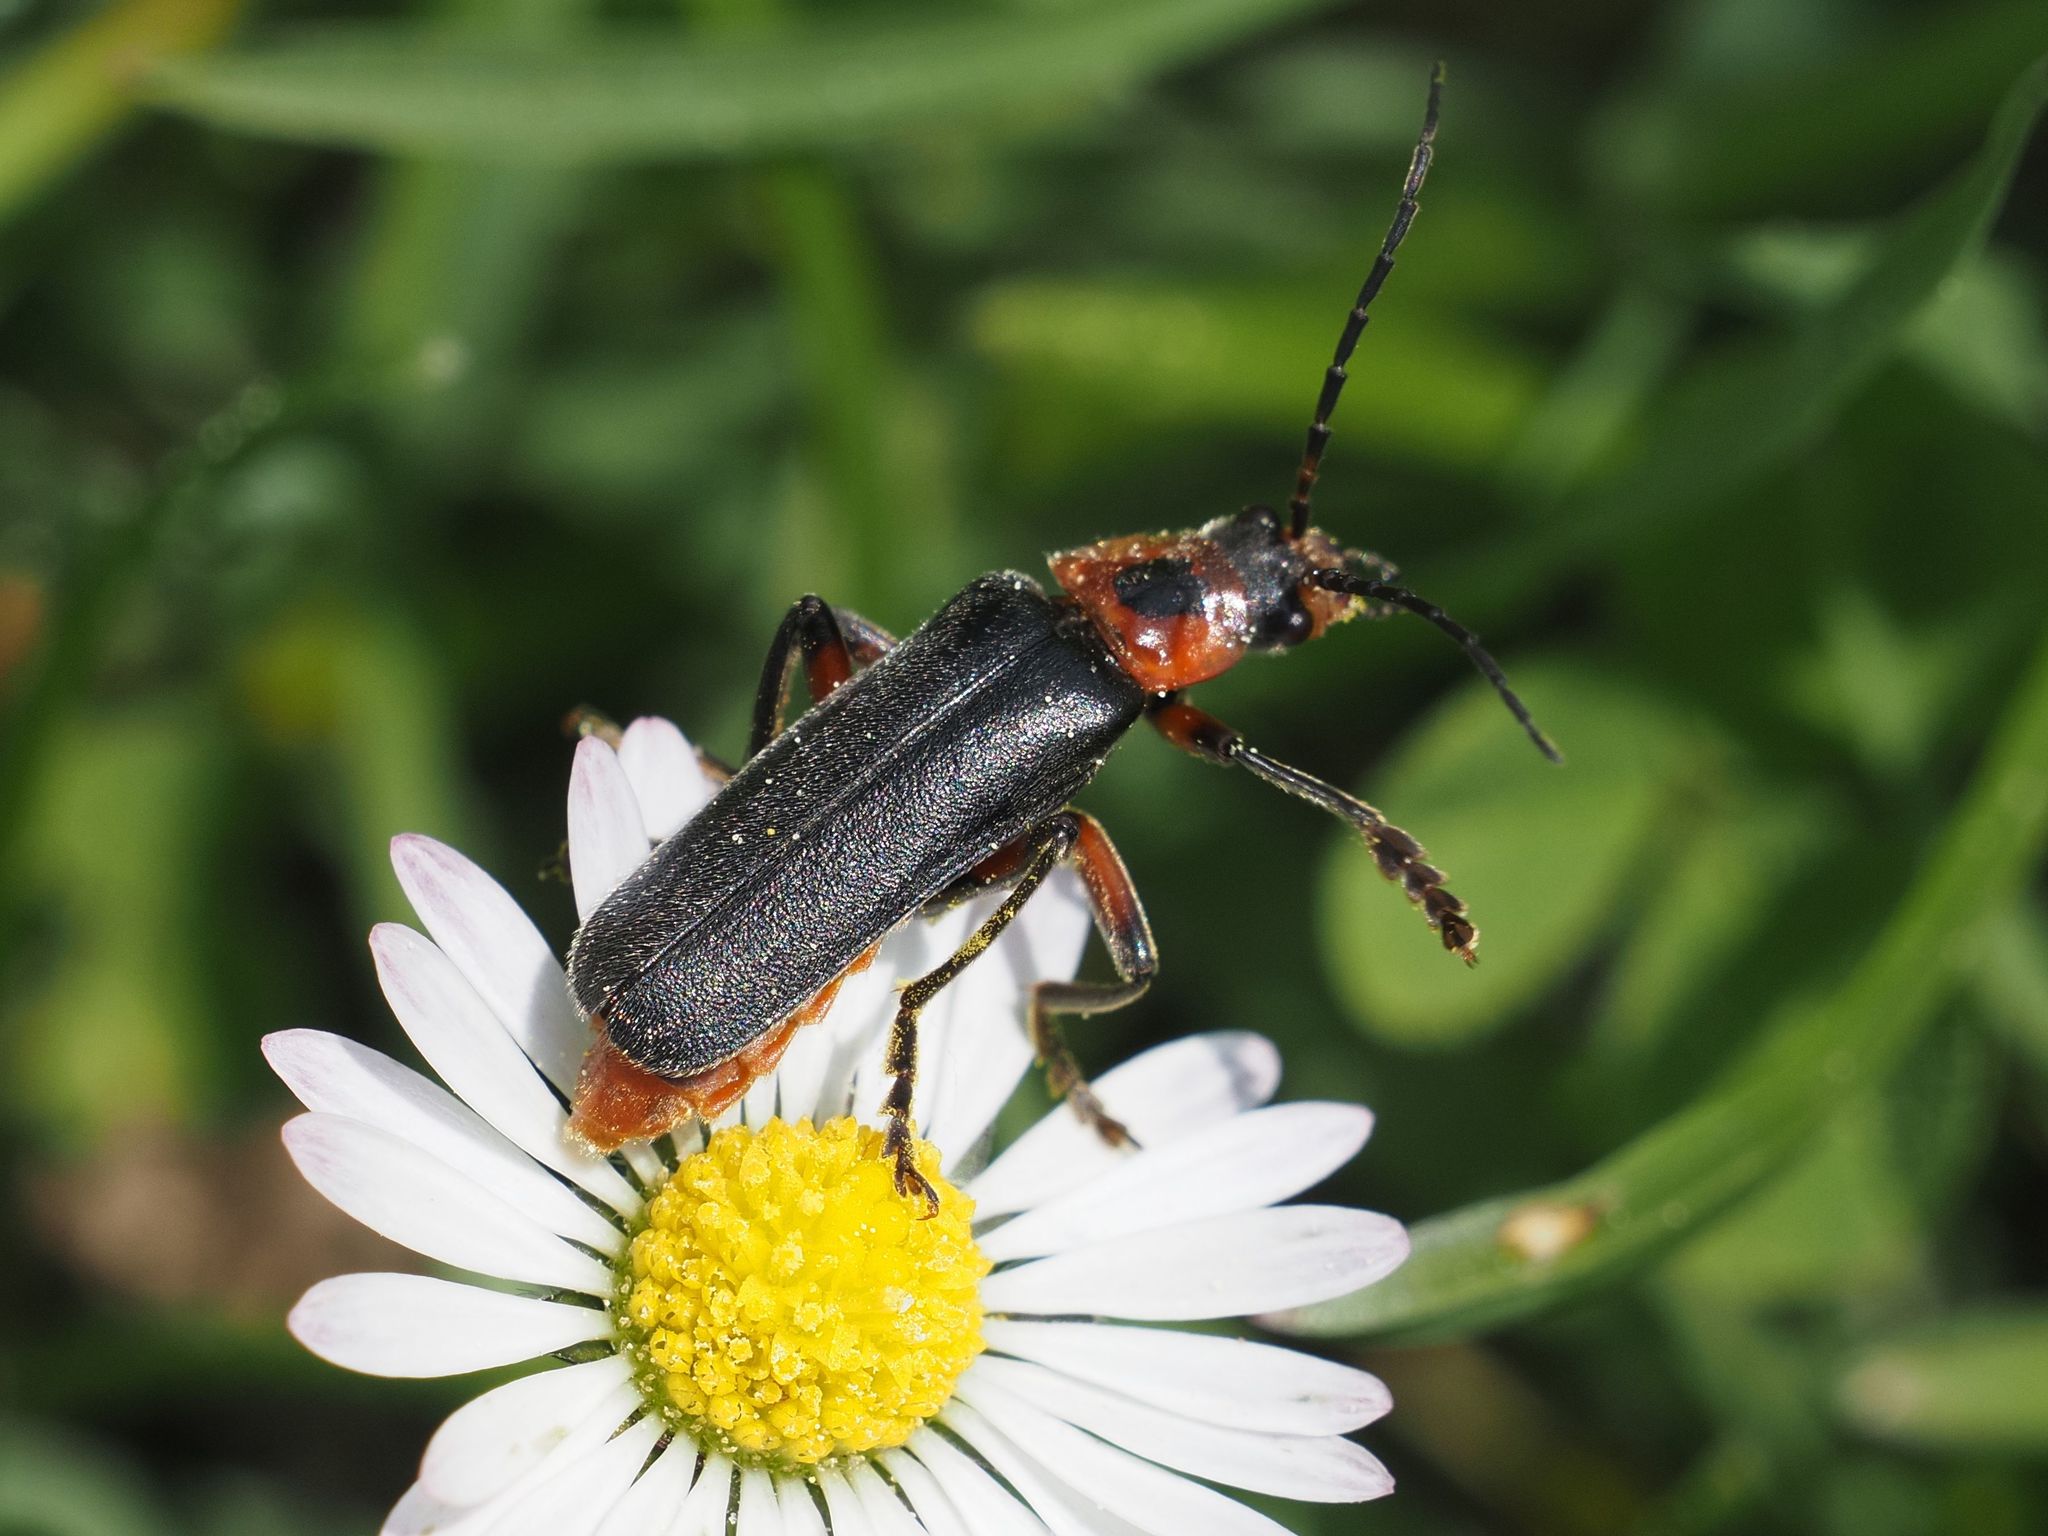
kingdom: Animalia
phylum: Arthropoda
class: Insecta
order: Coleoptera
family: Cantharidae
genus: Cantharis
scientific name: Cantharis rustica
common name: Soldier beetle
